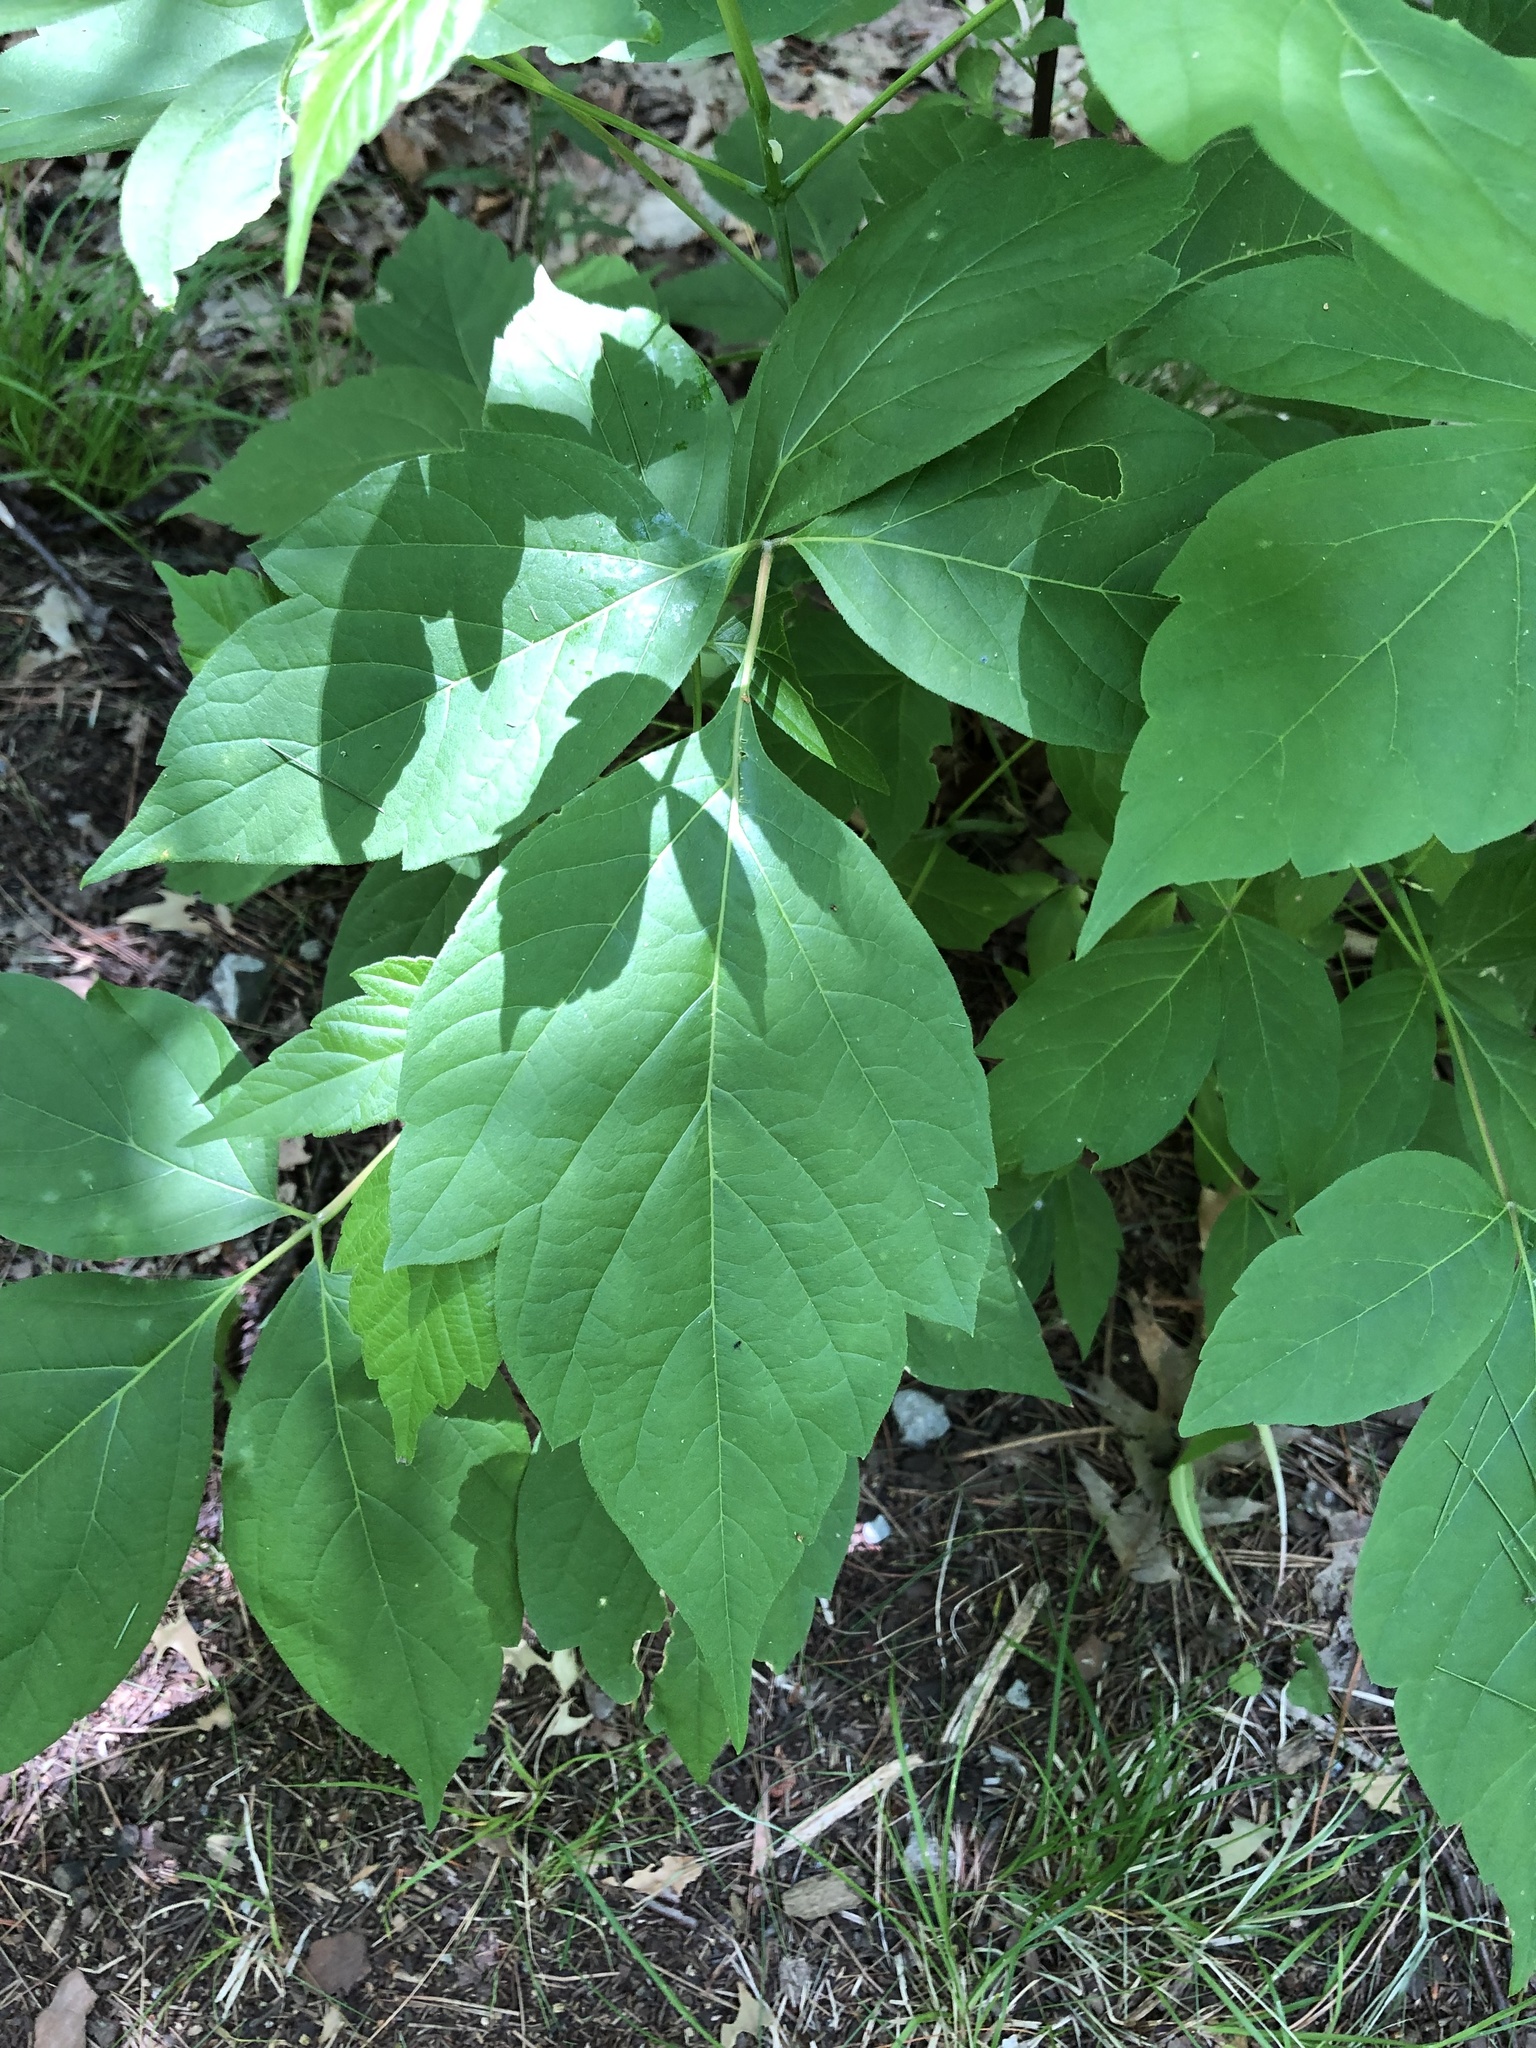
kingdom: Plantae
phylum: Tracheophyta
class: Magnoliopsida
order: Sapindales
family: Sapindaceae
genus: Acer
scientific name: Acer negundo
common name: Ashleaf maple
